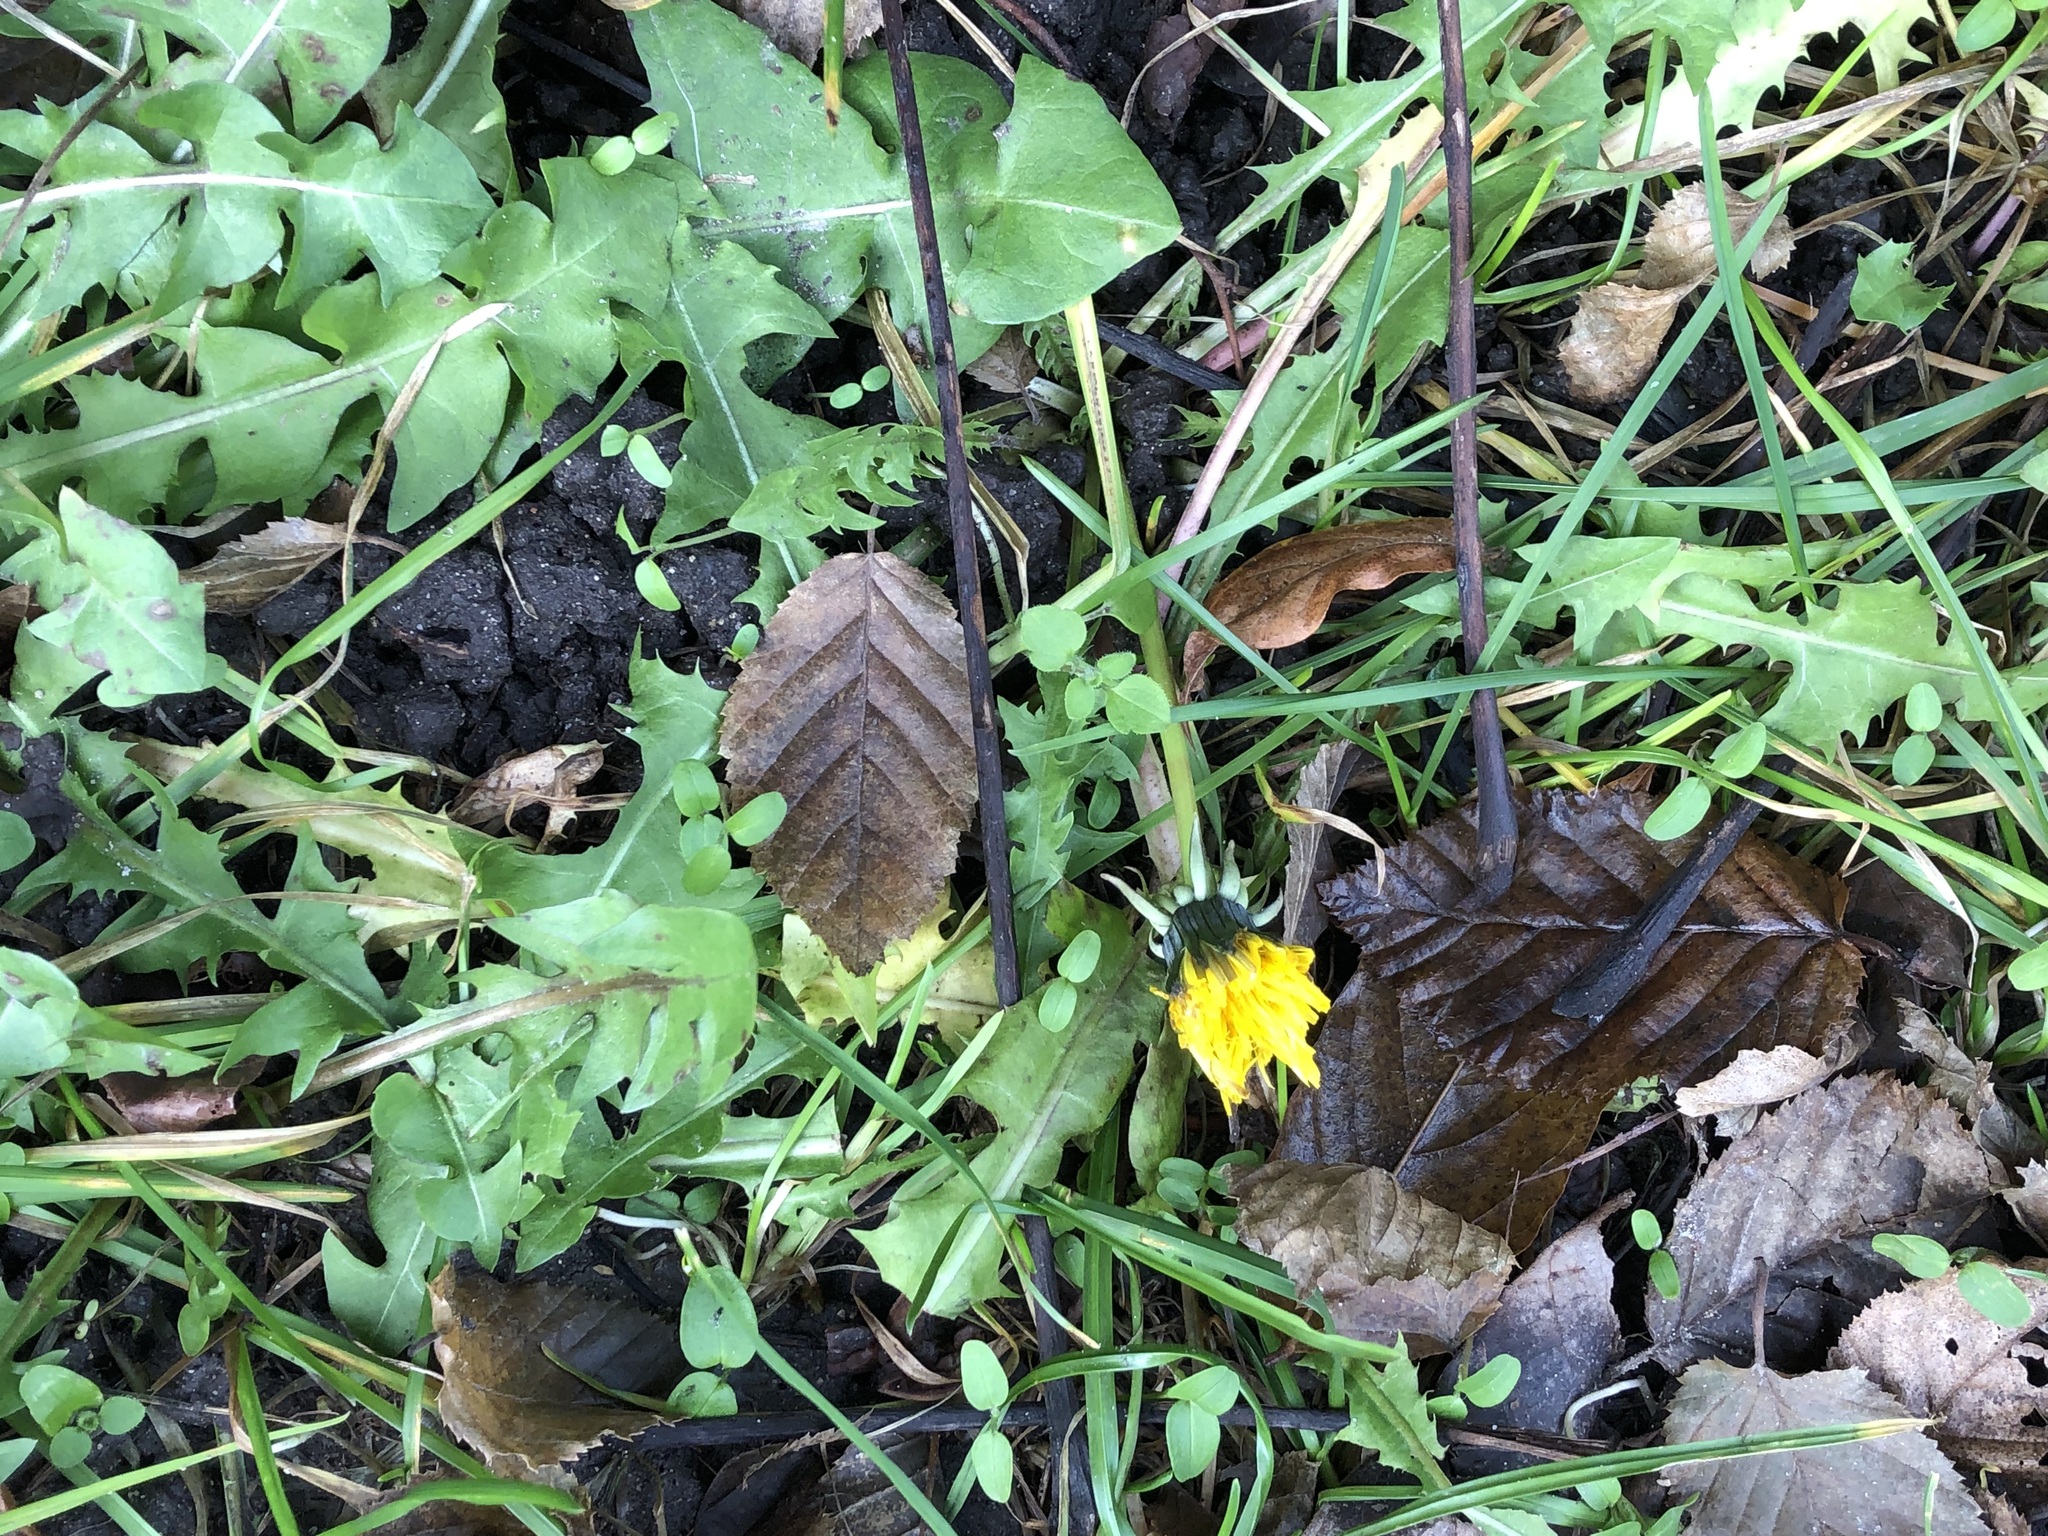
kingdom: Plantae
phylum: Tracheophyta
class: Magnoliopsida
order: Asterales
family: Asteraceae
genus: Taraxacum
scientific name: Taraxacum officinale
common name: Common dandelion
